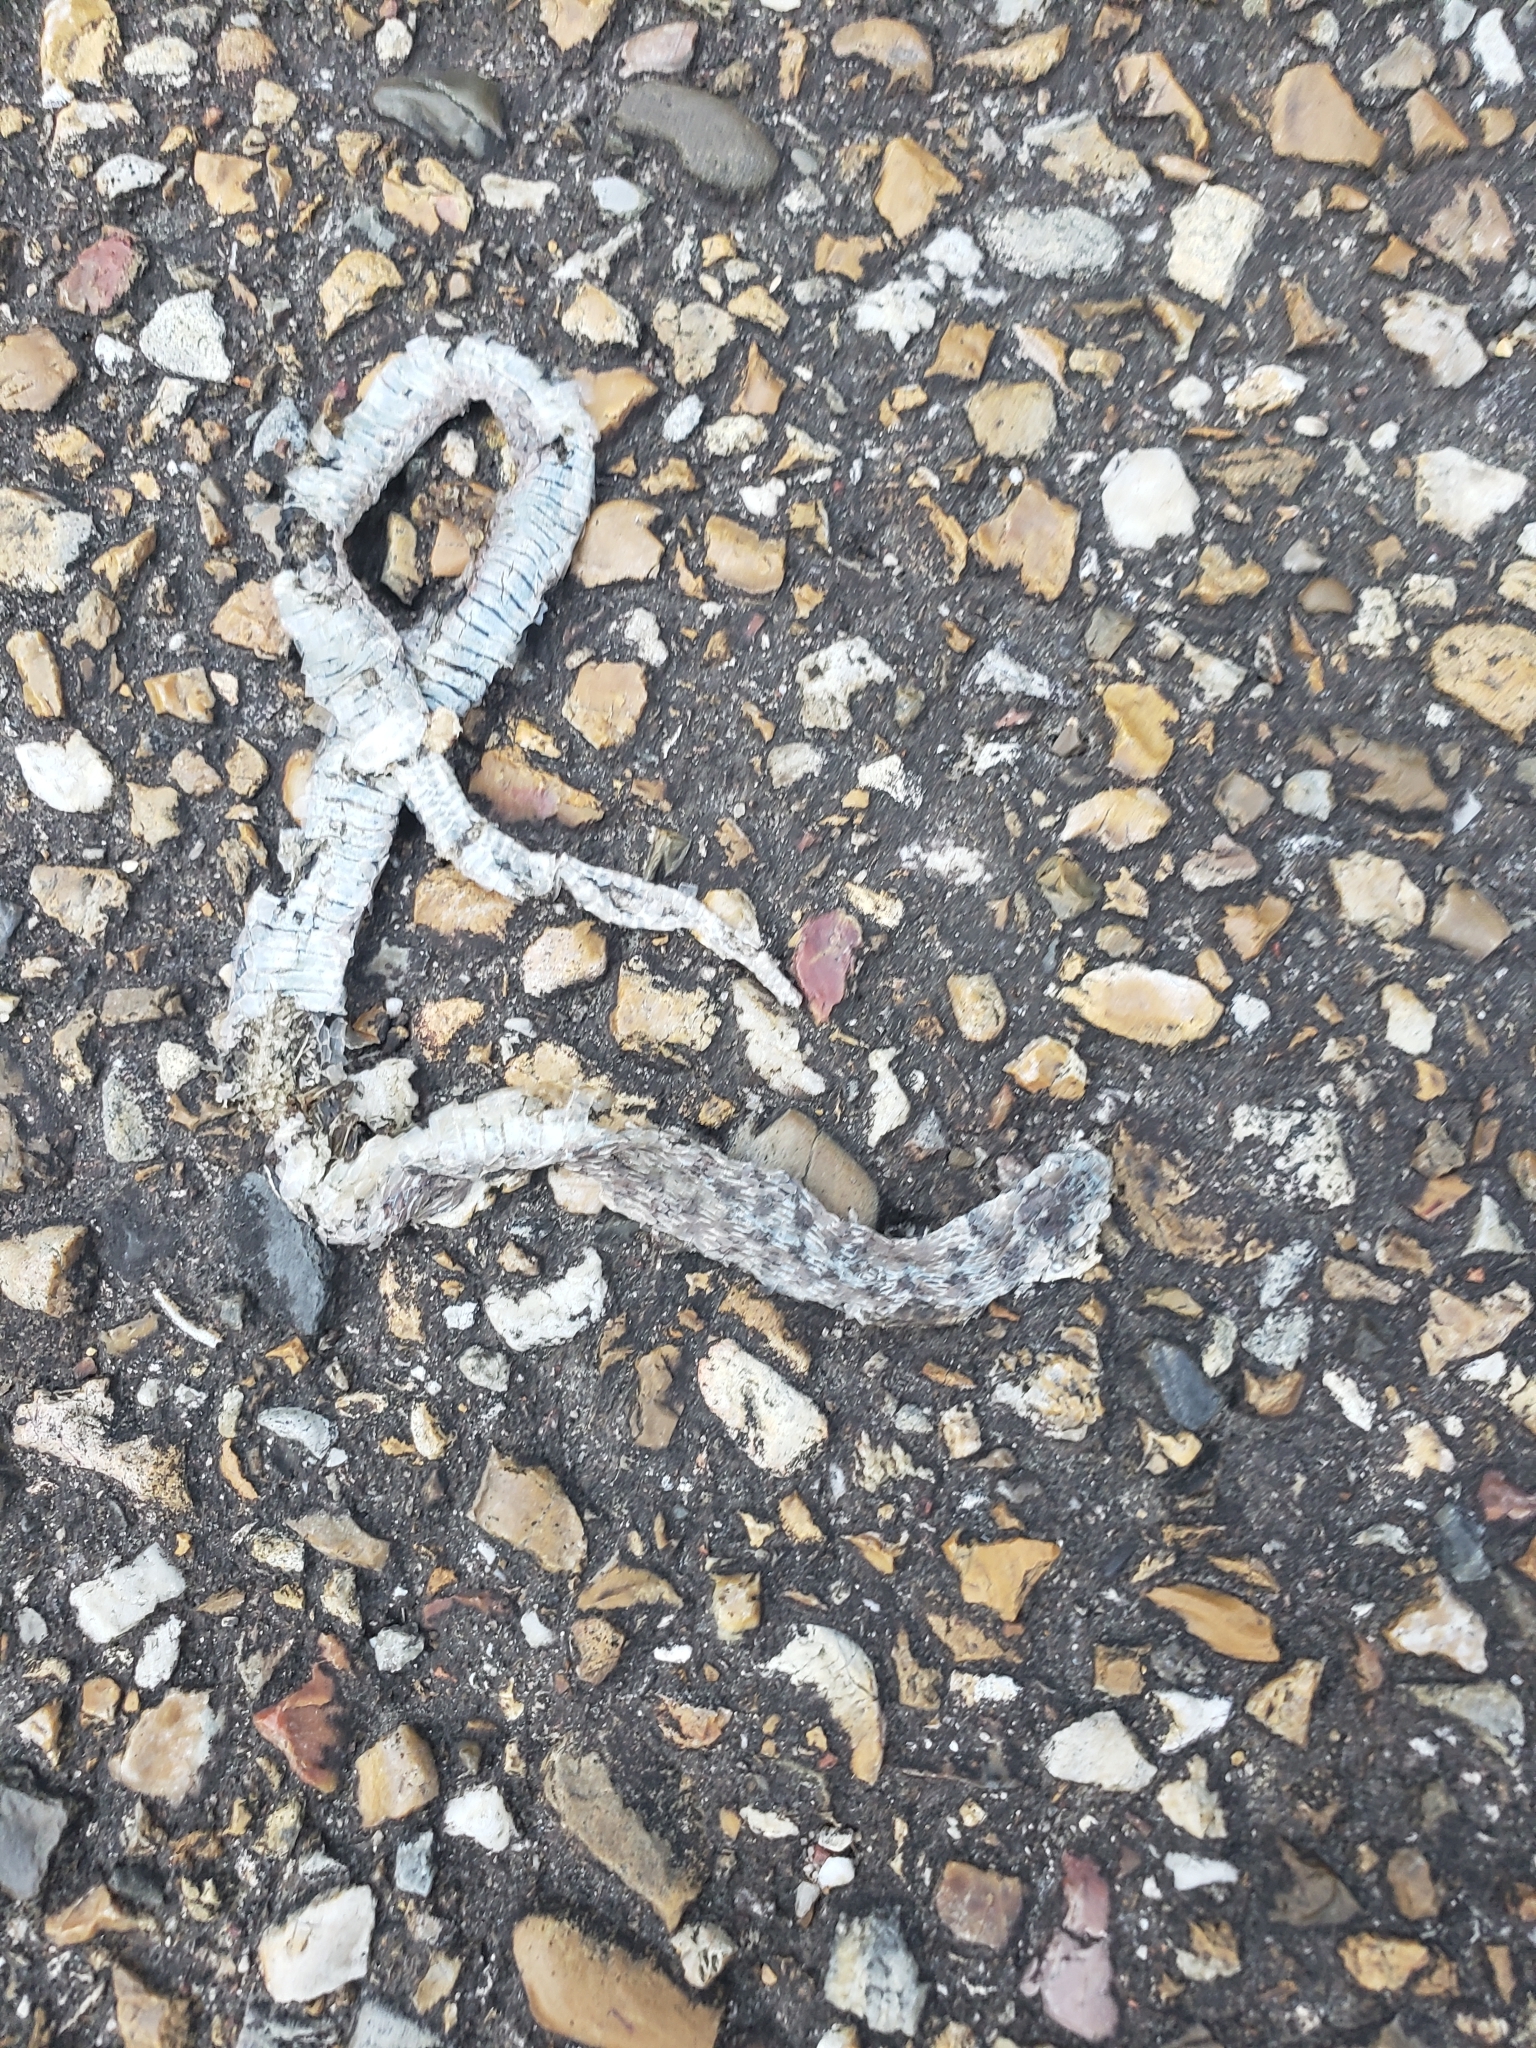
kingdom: Animalia
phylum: Chordata
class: Squamata
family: Colubridae
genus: Storeria
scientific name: Storeria dekayi
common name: (dekay’s) brown snake
